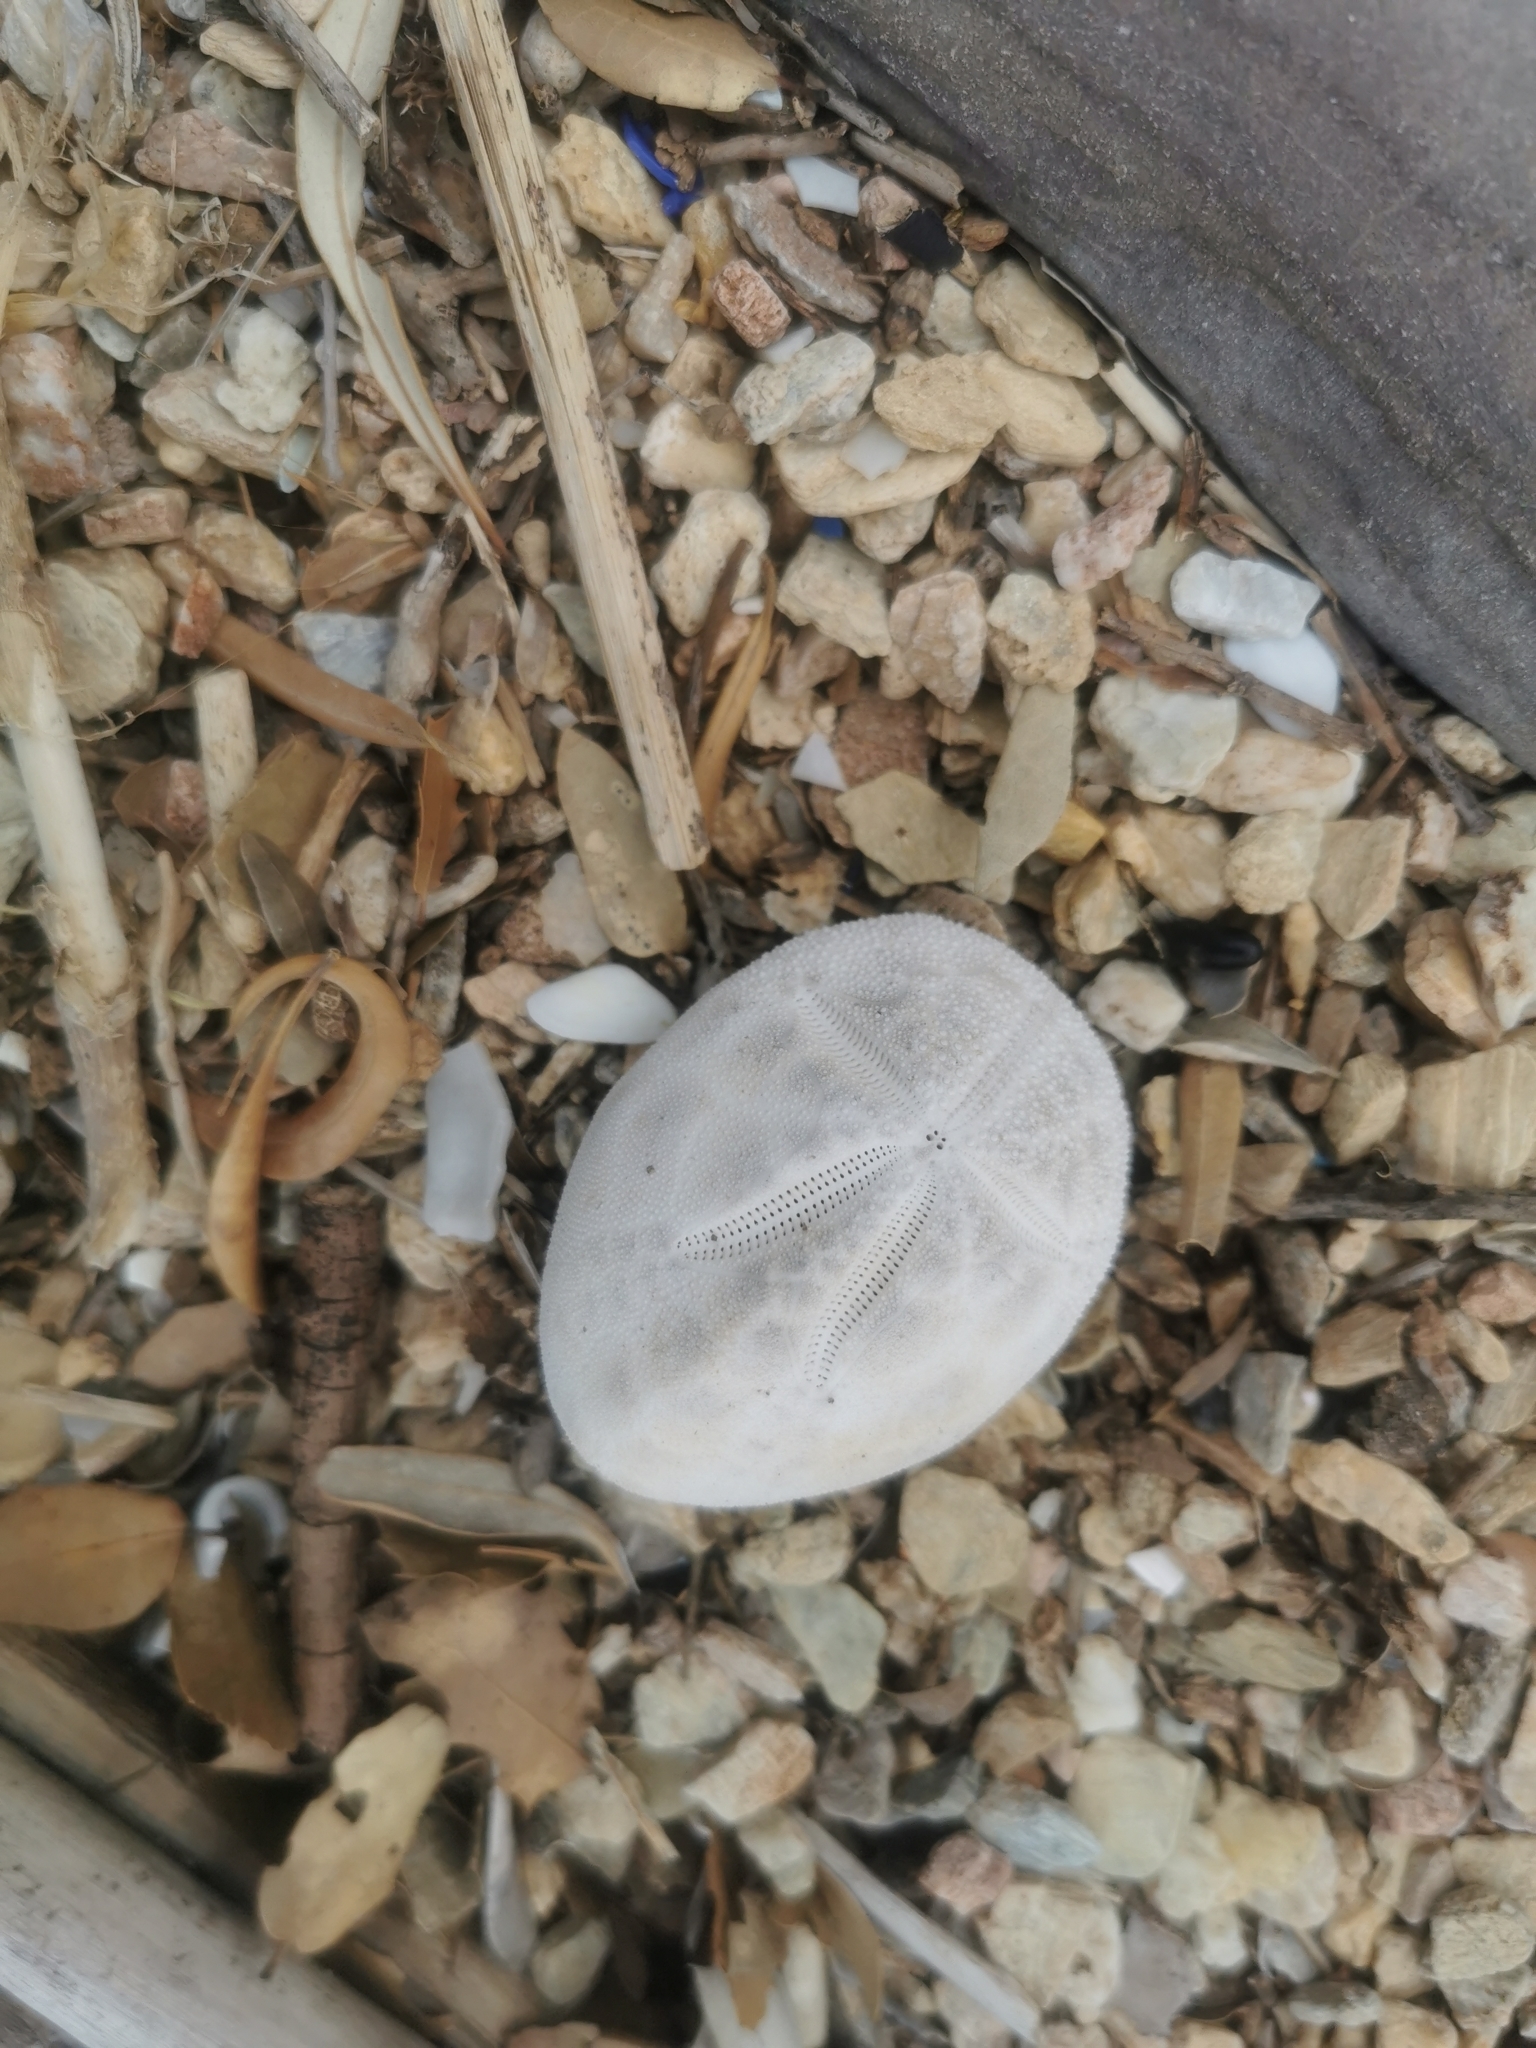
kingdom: Animalia
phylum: Echinodermata
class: Echinoidea
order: Spatangoida
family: Brissidae
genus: Brissus
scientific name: Brissus unicolor
